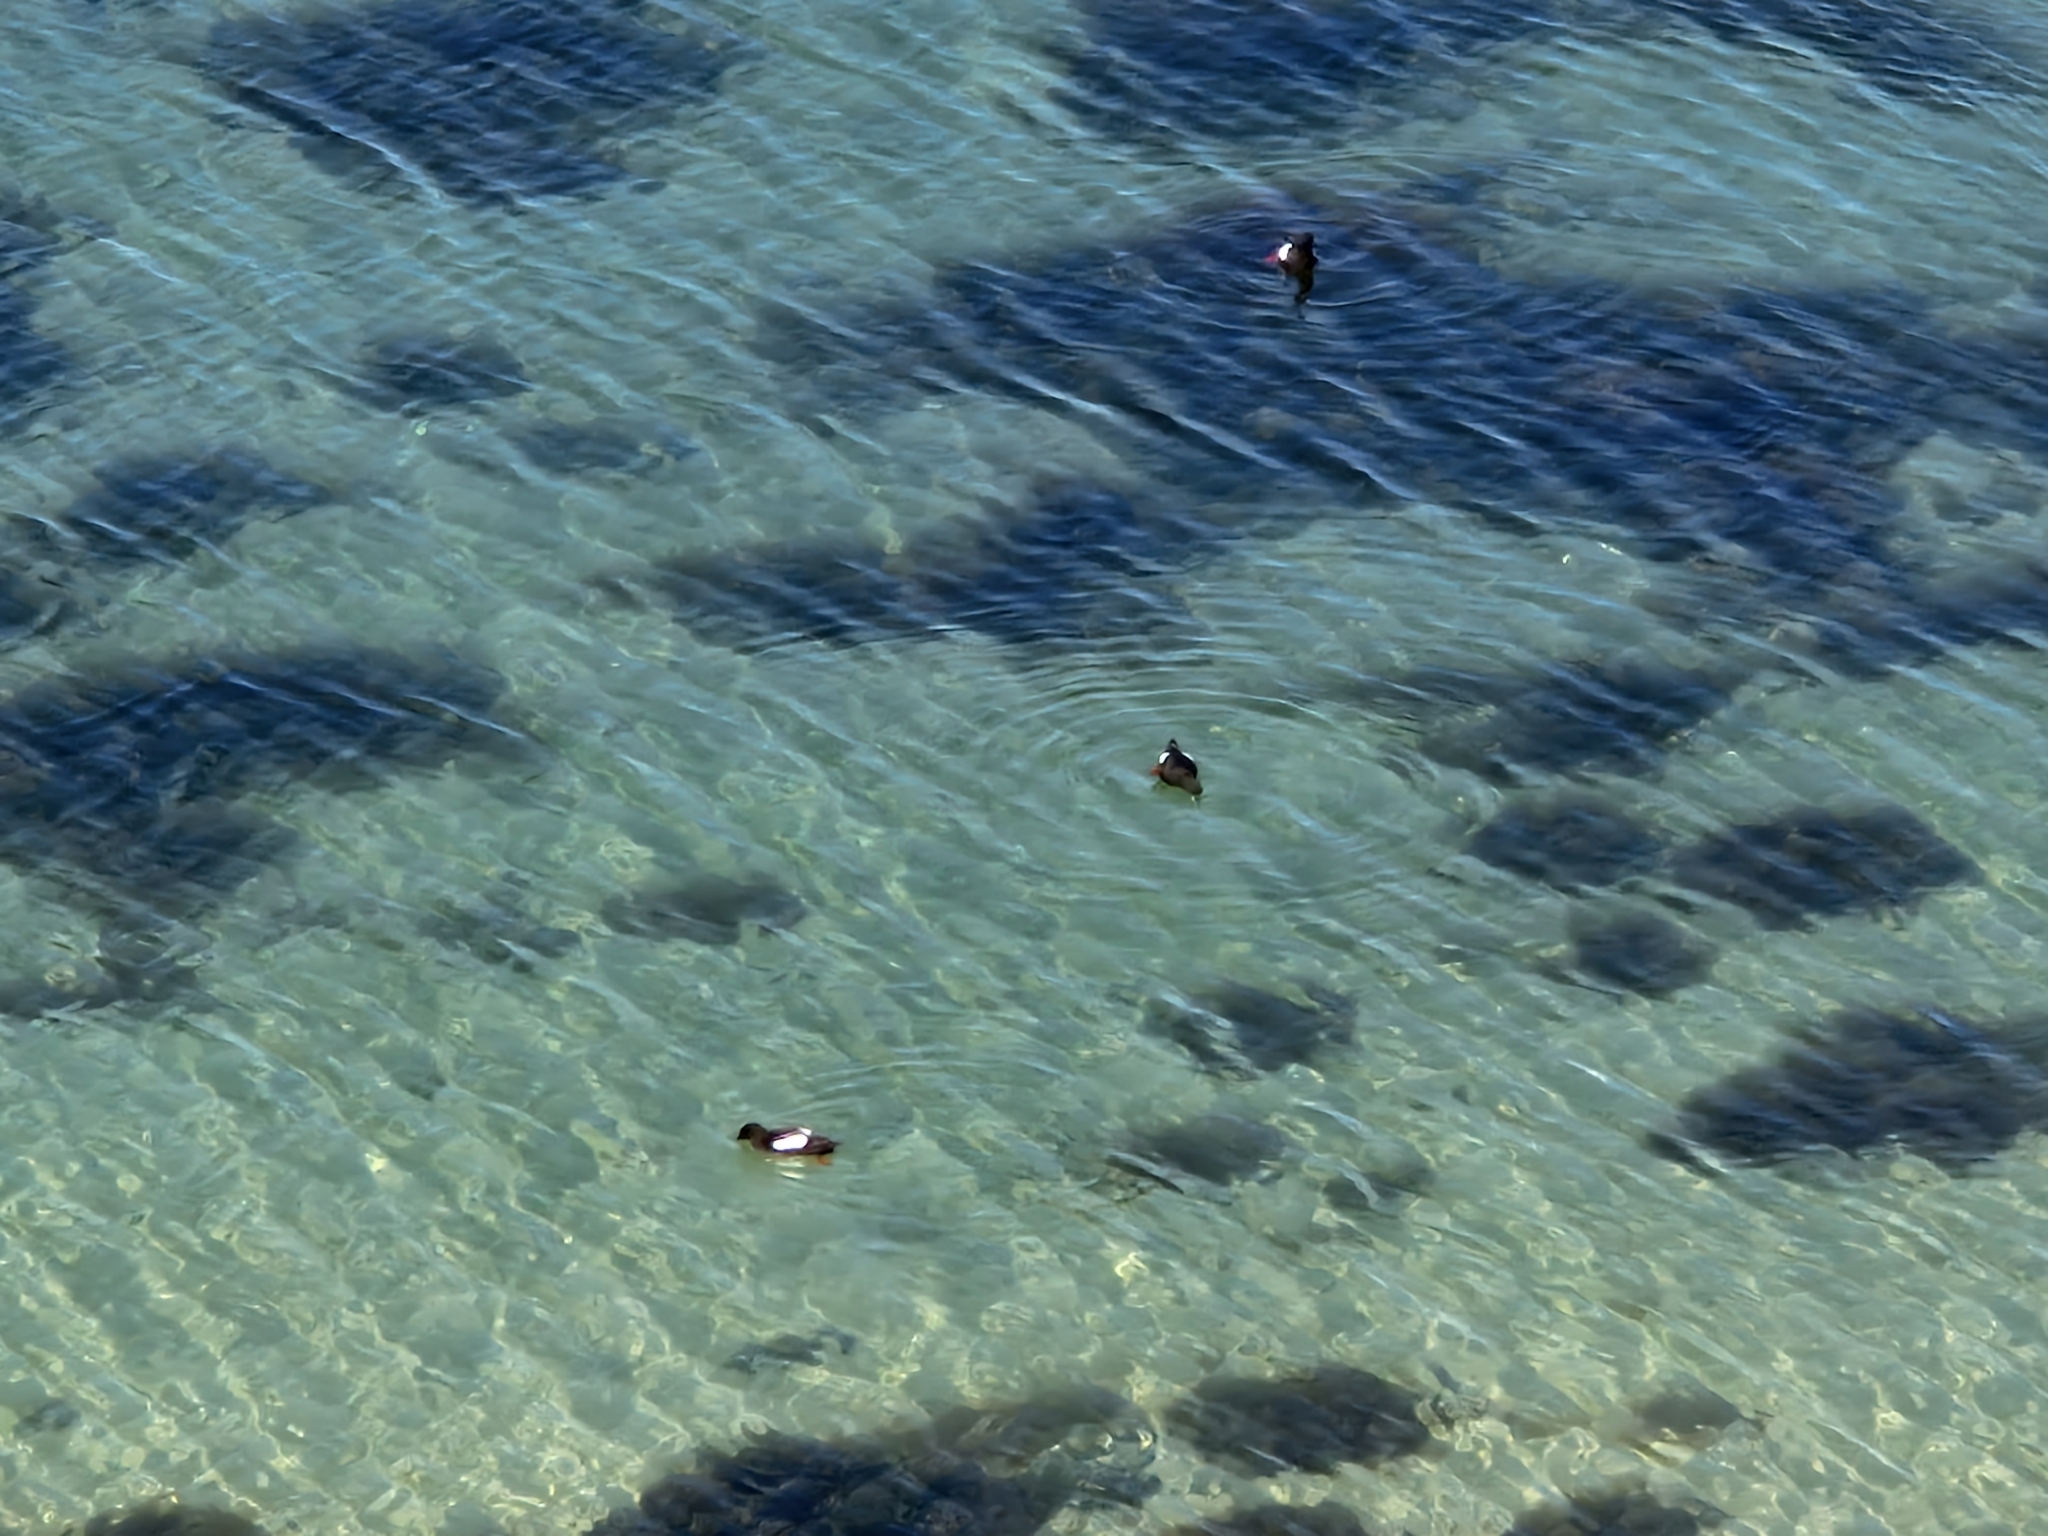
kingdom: Animalia
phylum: Chordata
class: Aves
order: Charadriiformes
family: Alcidae
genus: Cepphus
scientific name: Cepphus grylle
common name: Black guillemot
